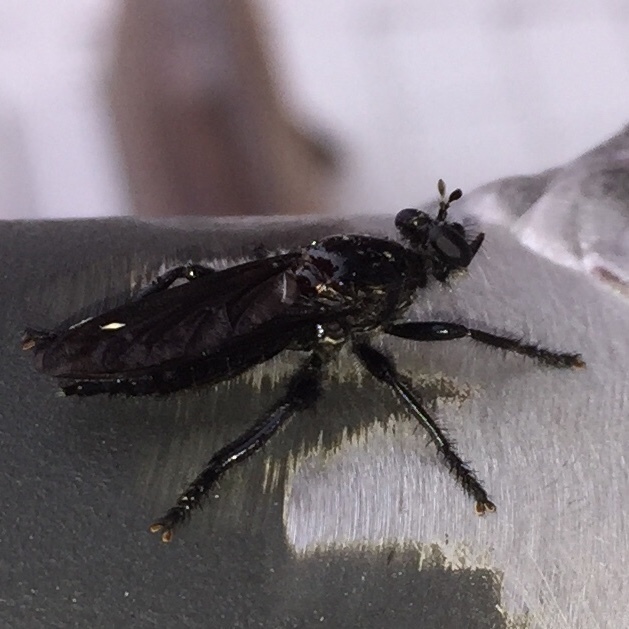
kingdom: Animalia
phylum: Arthropoda
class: Insecta
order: Diptera
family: Asilidae
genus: Pogonosoma
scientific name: Pogonosoma dorsatum
